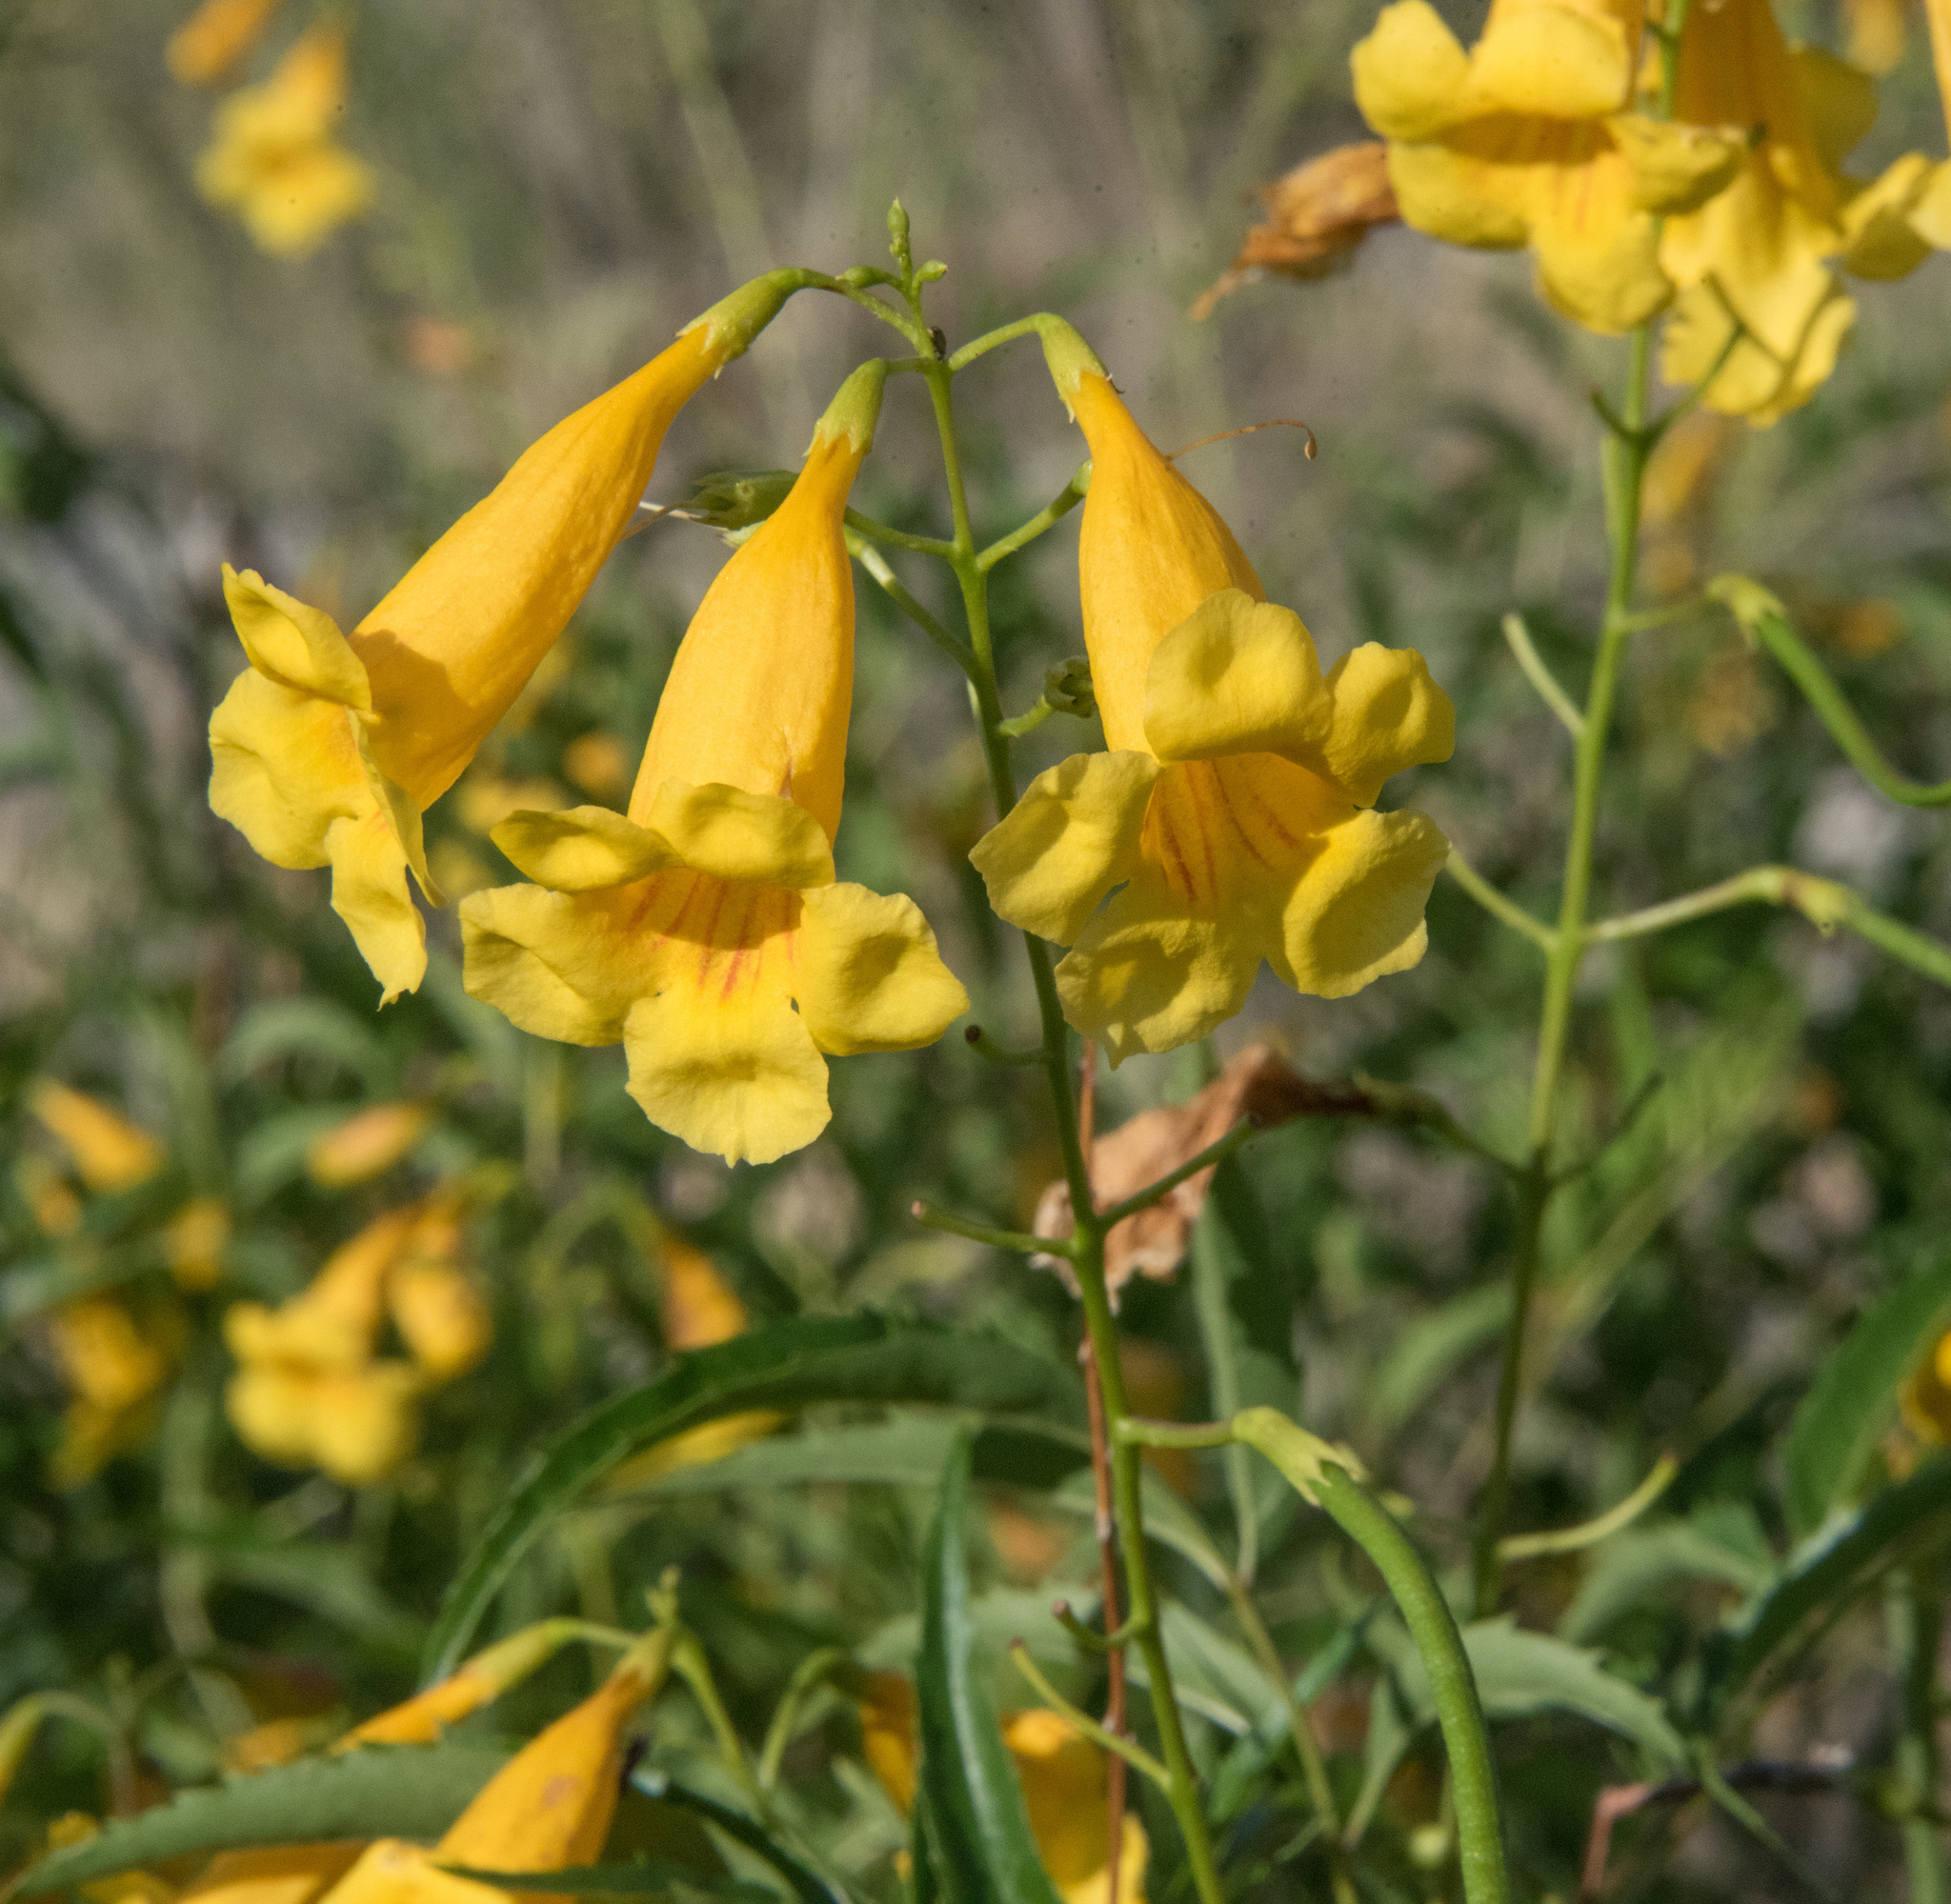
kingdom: Plantae
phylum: Tracheophyta
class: Magnoliopsida
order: Lamiales
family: Bignoniaceae
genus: Tecoma
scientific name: Tecoma stans
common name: Yellow trumpetbush
